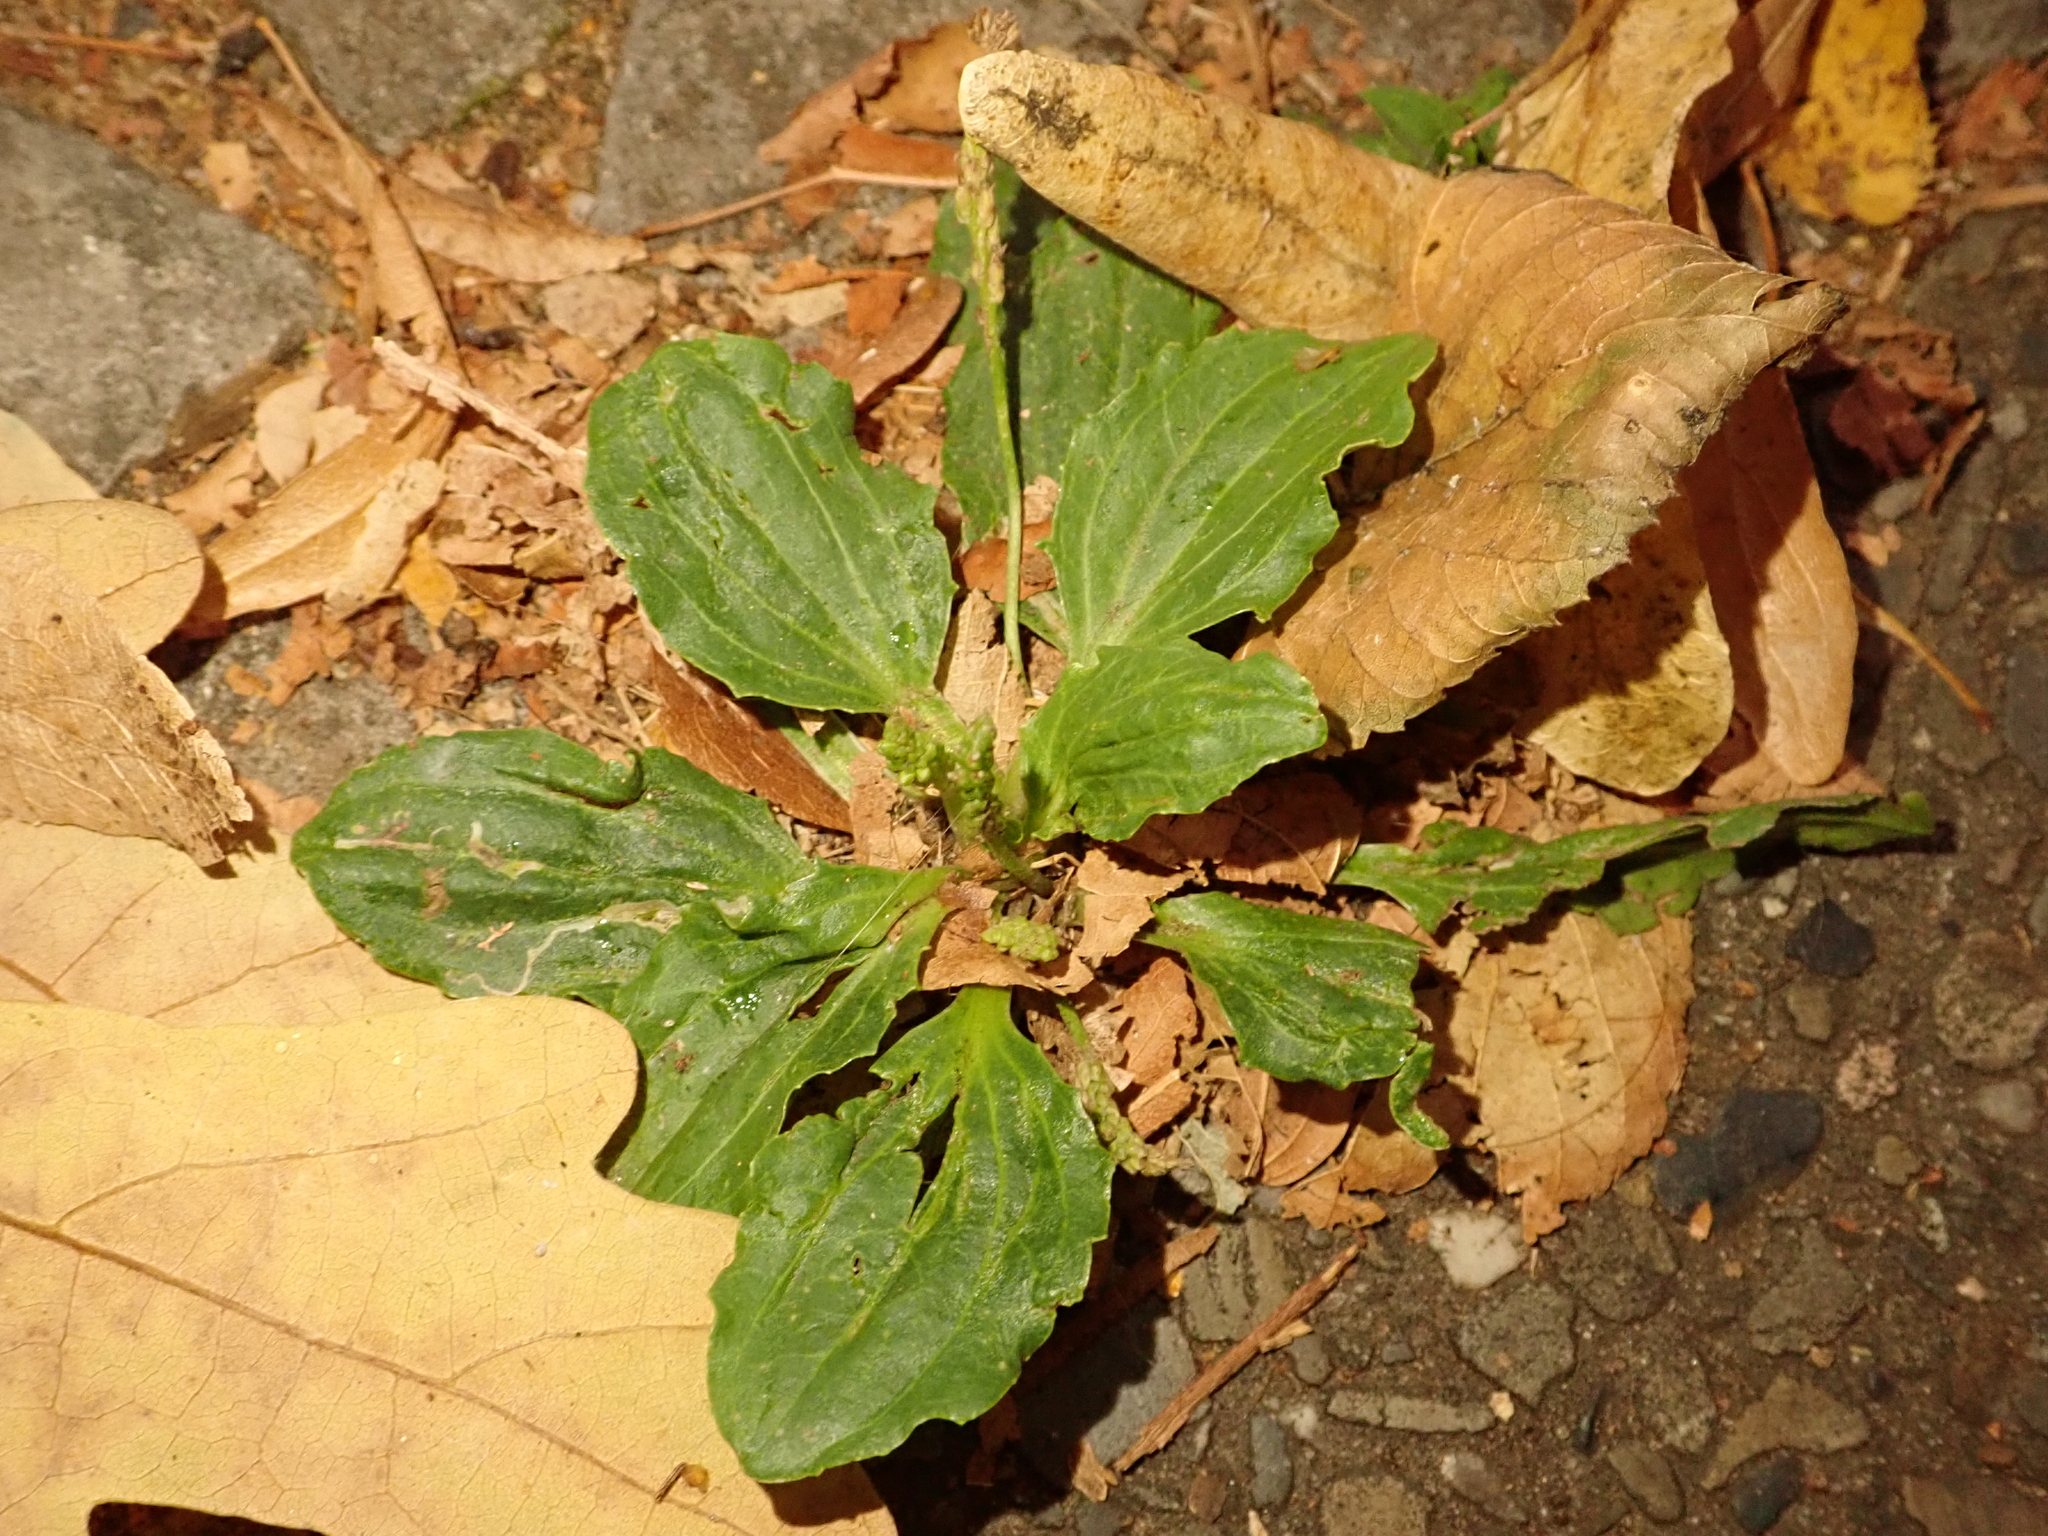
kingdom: Plantae
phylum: Tracheophyta
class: Magnoliopsida
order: Lamiales
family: Plantaginaceae
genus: Plantago
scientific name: Plantago major
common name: Common plantain
